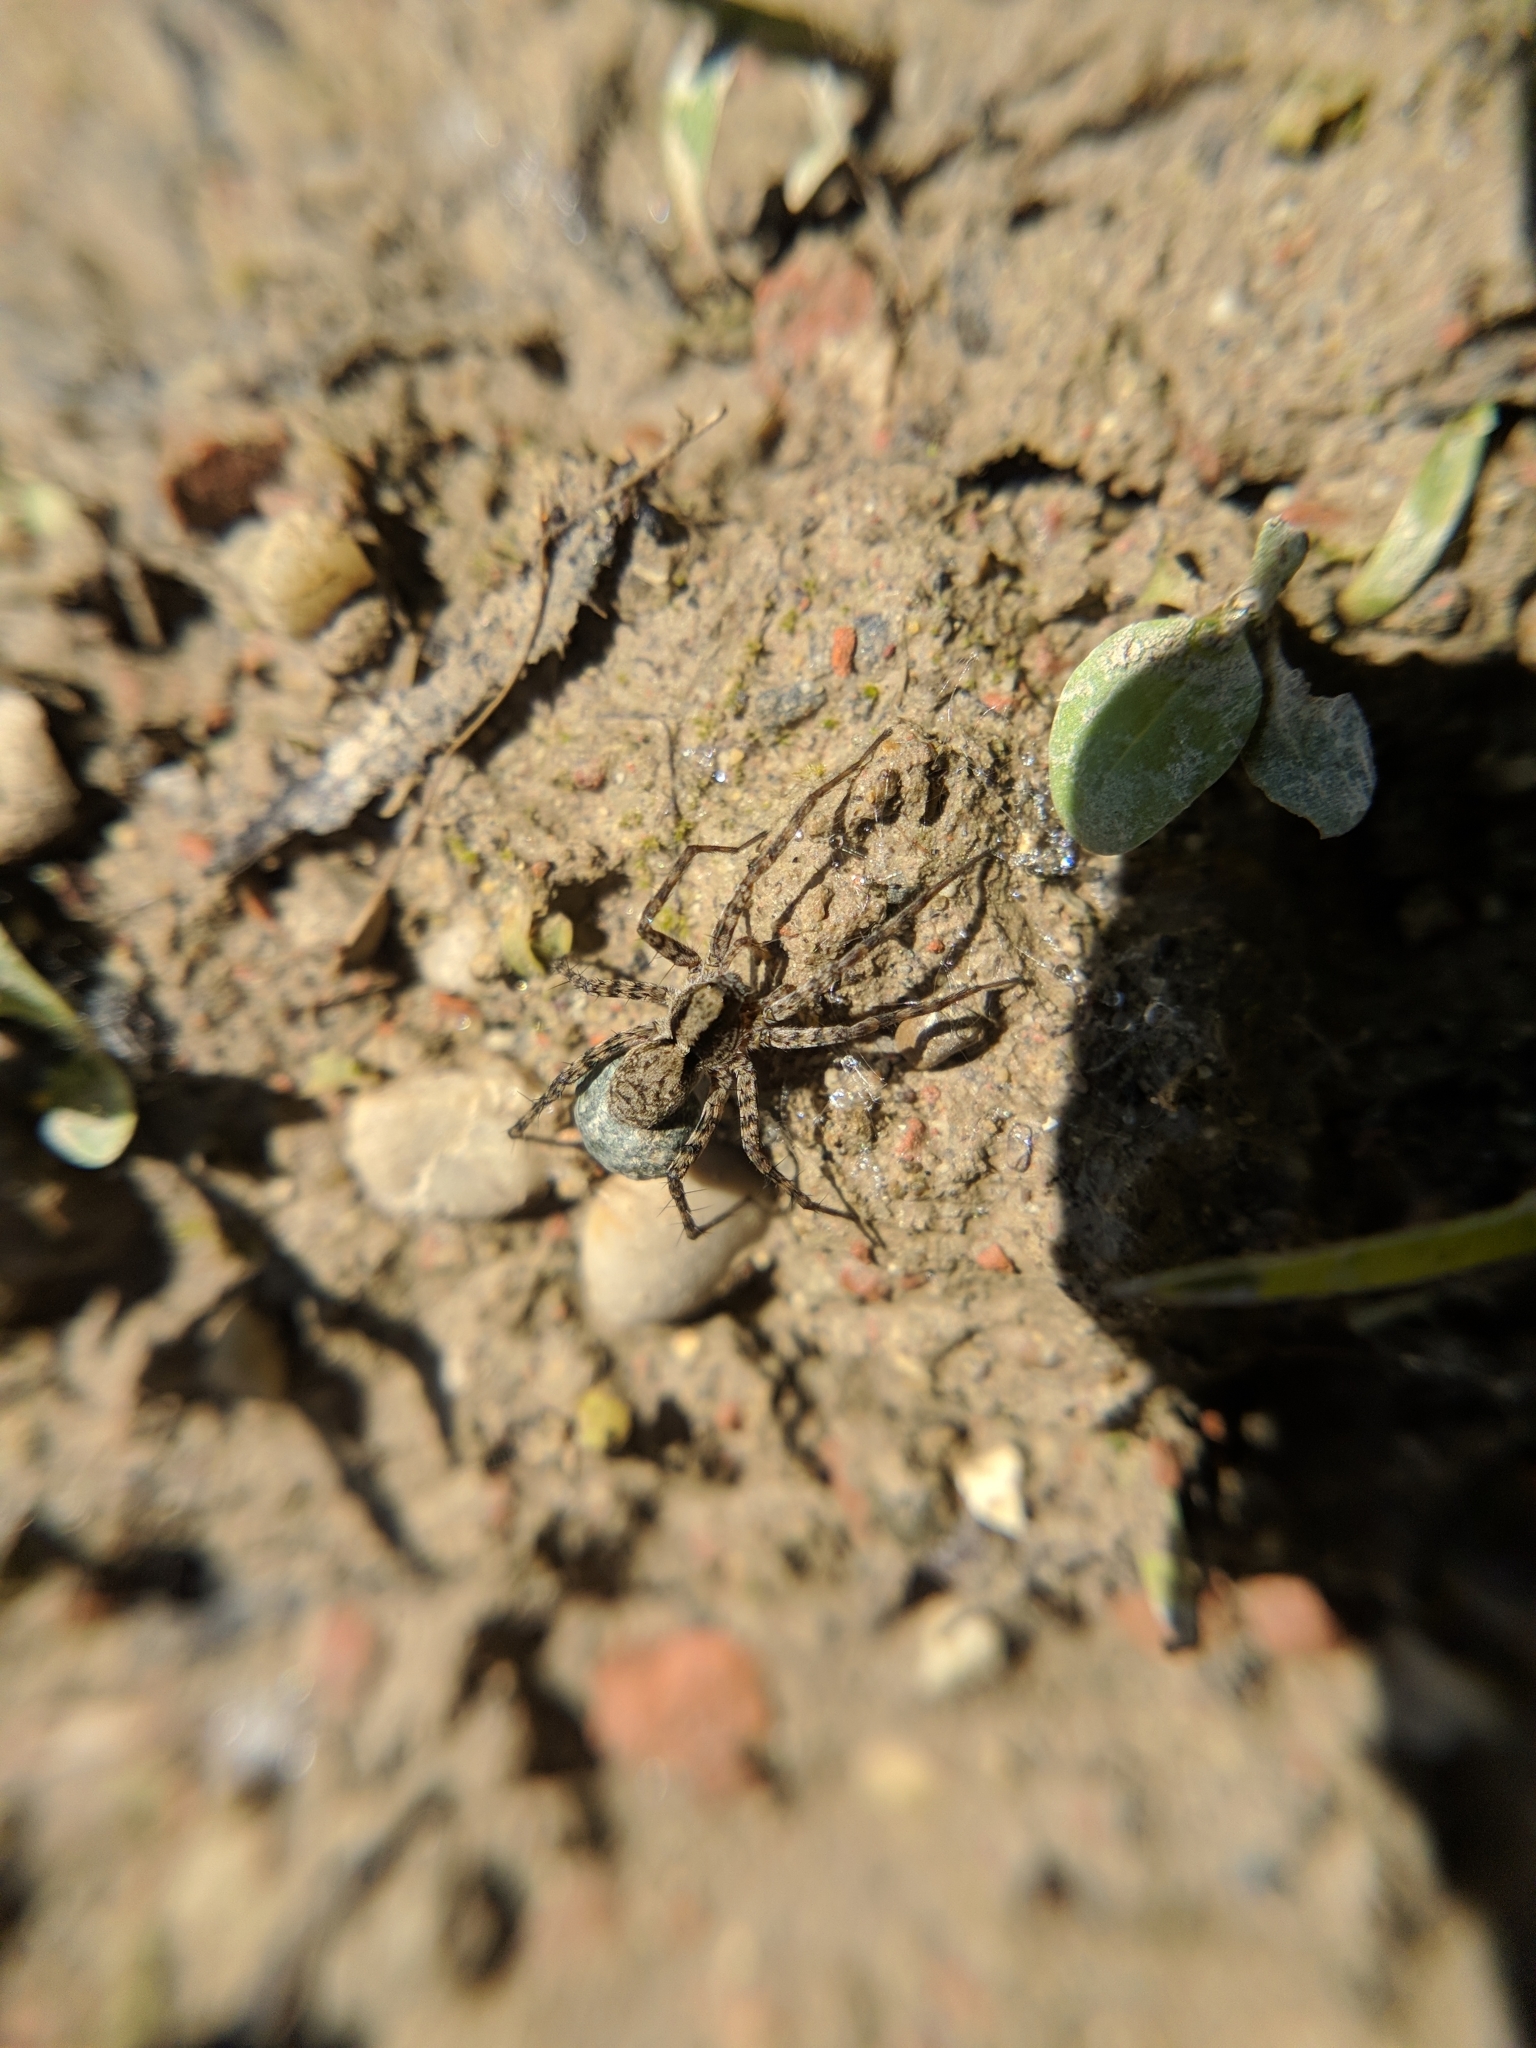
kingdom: Animalia
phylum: Arthropoda
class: Arachnida
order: Araneae
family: Lycosidae
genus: Pardosa
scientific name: Pardosa
